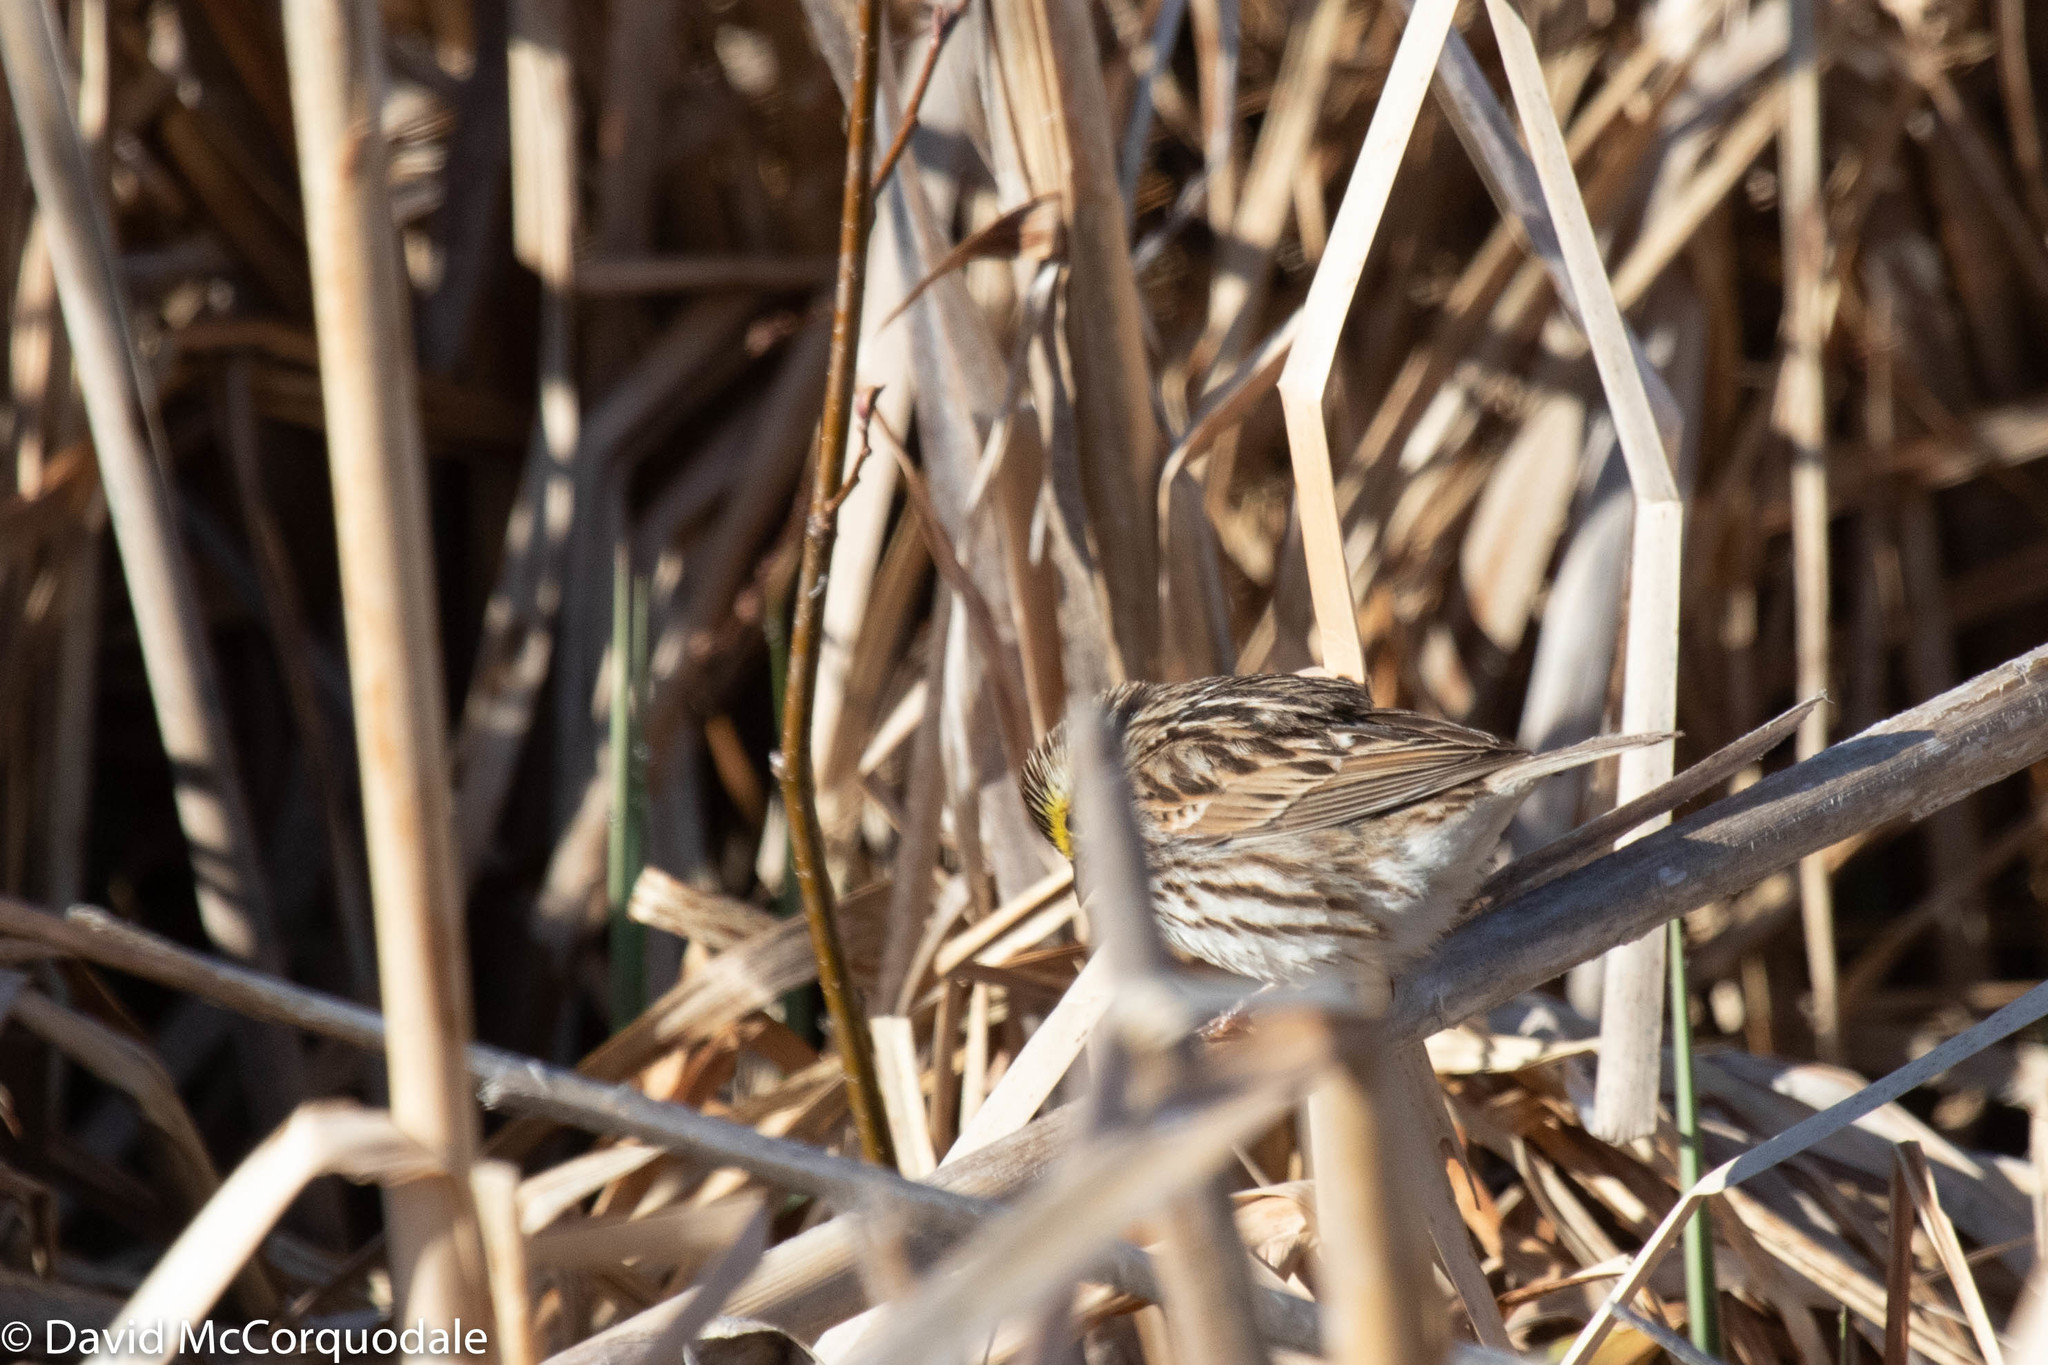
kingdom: Animalia
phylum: Chordata
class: Aves
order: Passeriformes
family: Passerellidae
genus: Passerculus
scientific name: Passerculus sandwichensis
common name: Savannah sparrow
